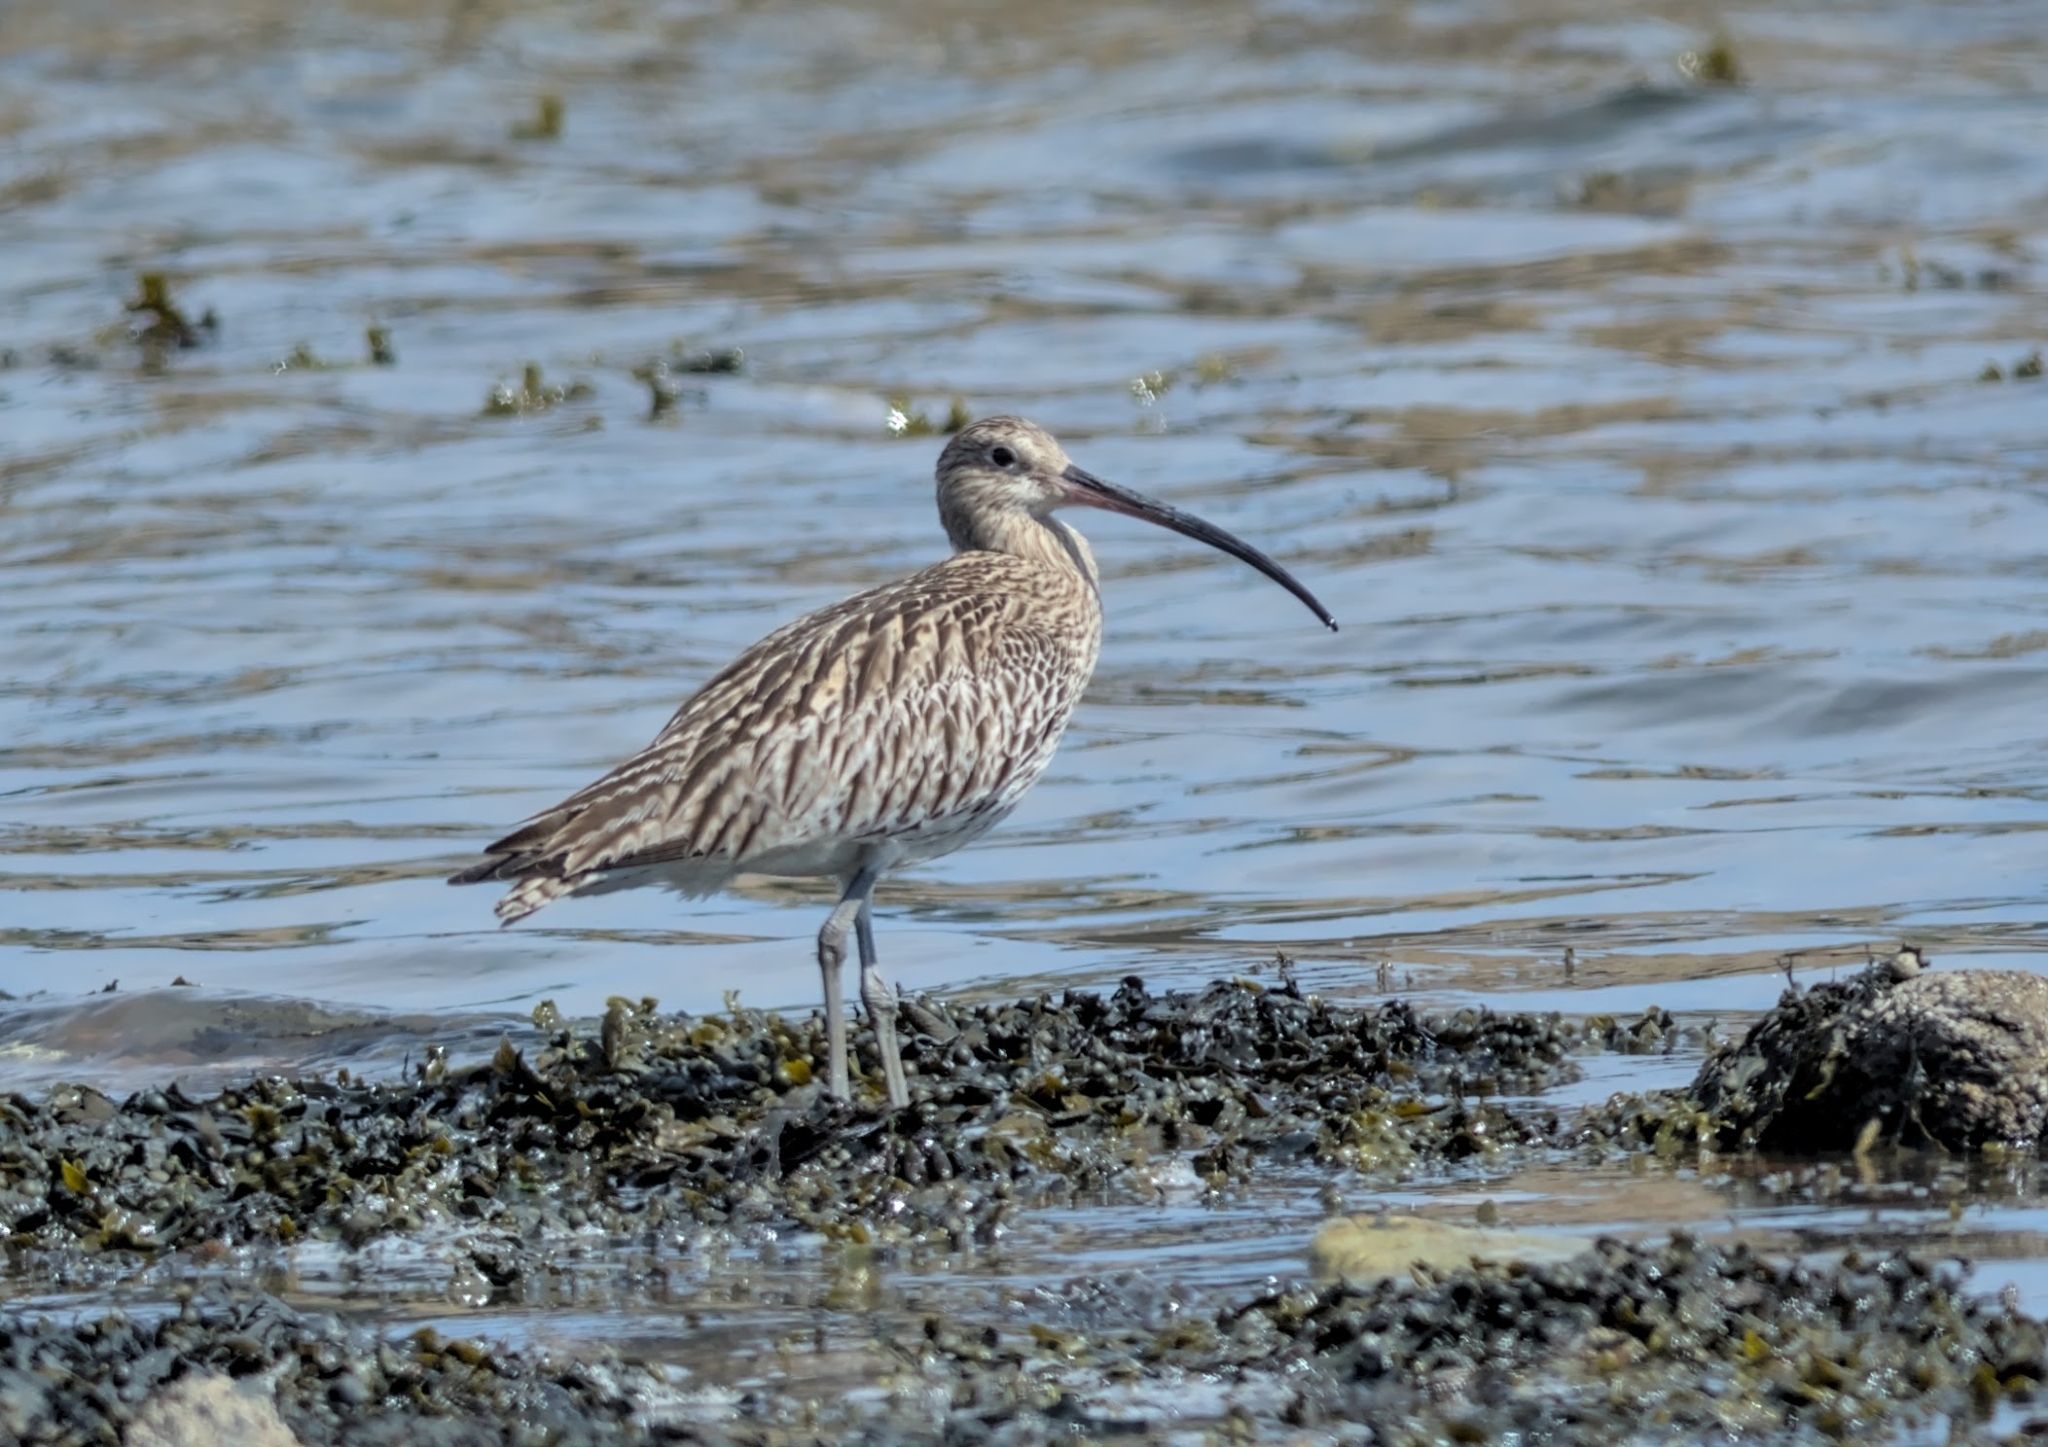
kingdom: Animalia
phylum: Chordata
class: Aves
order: Charadriiformes
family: Scolopacidae
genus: Numenius
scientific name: Numenius arquata
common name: Eurasian curlew
